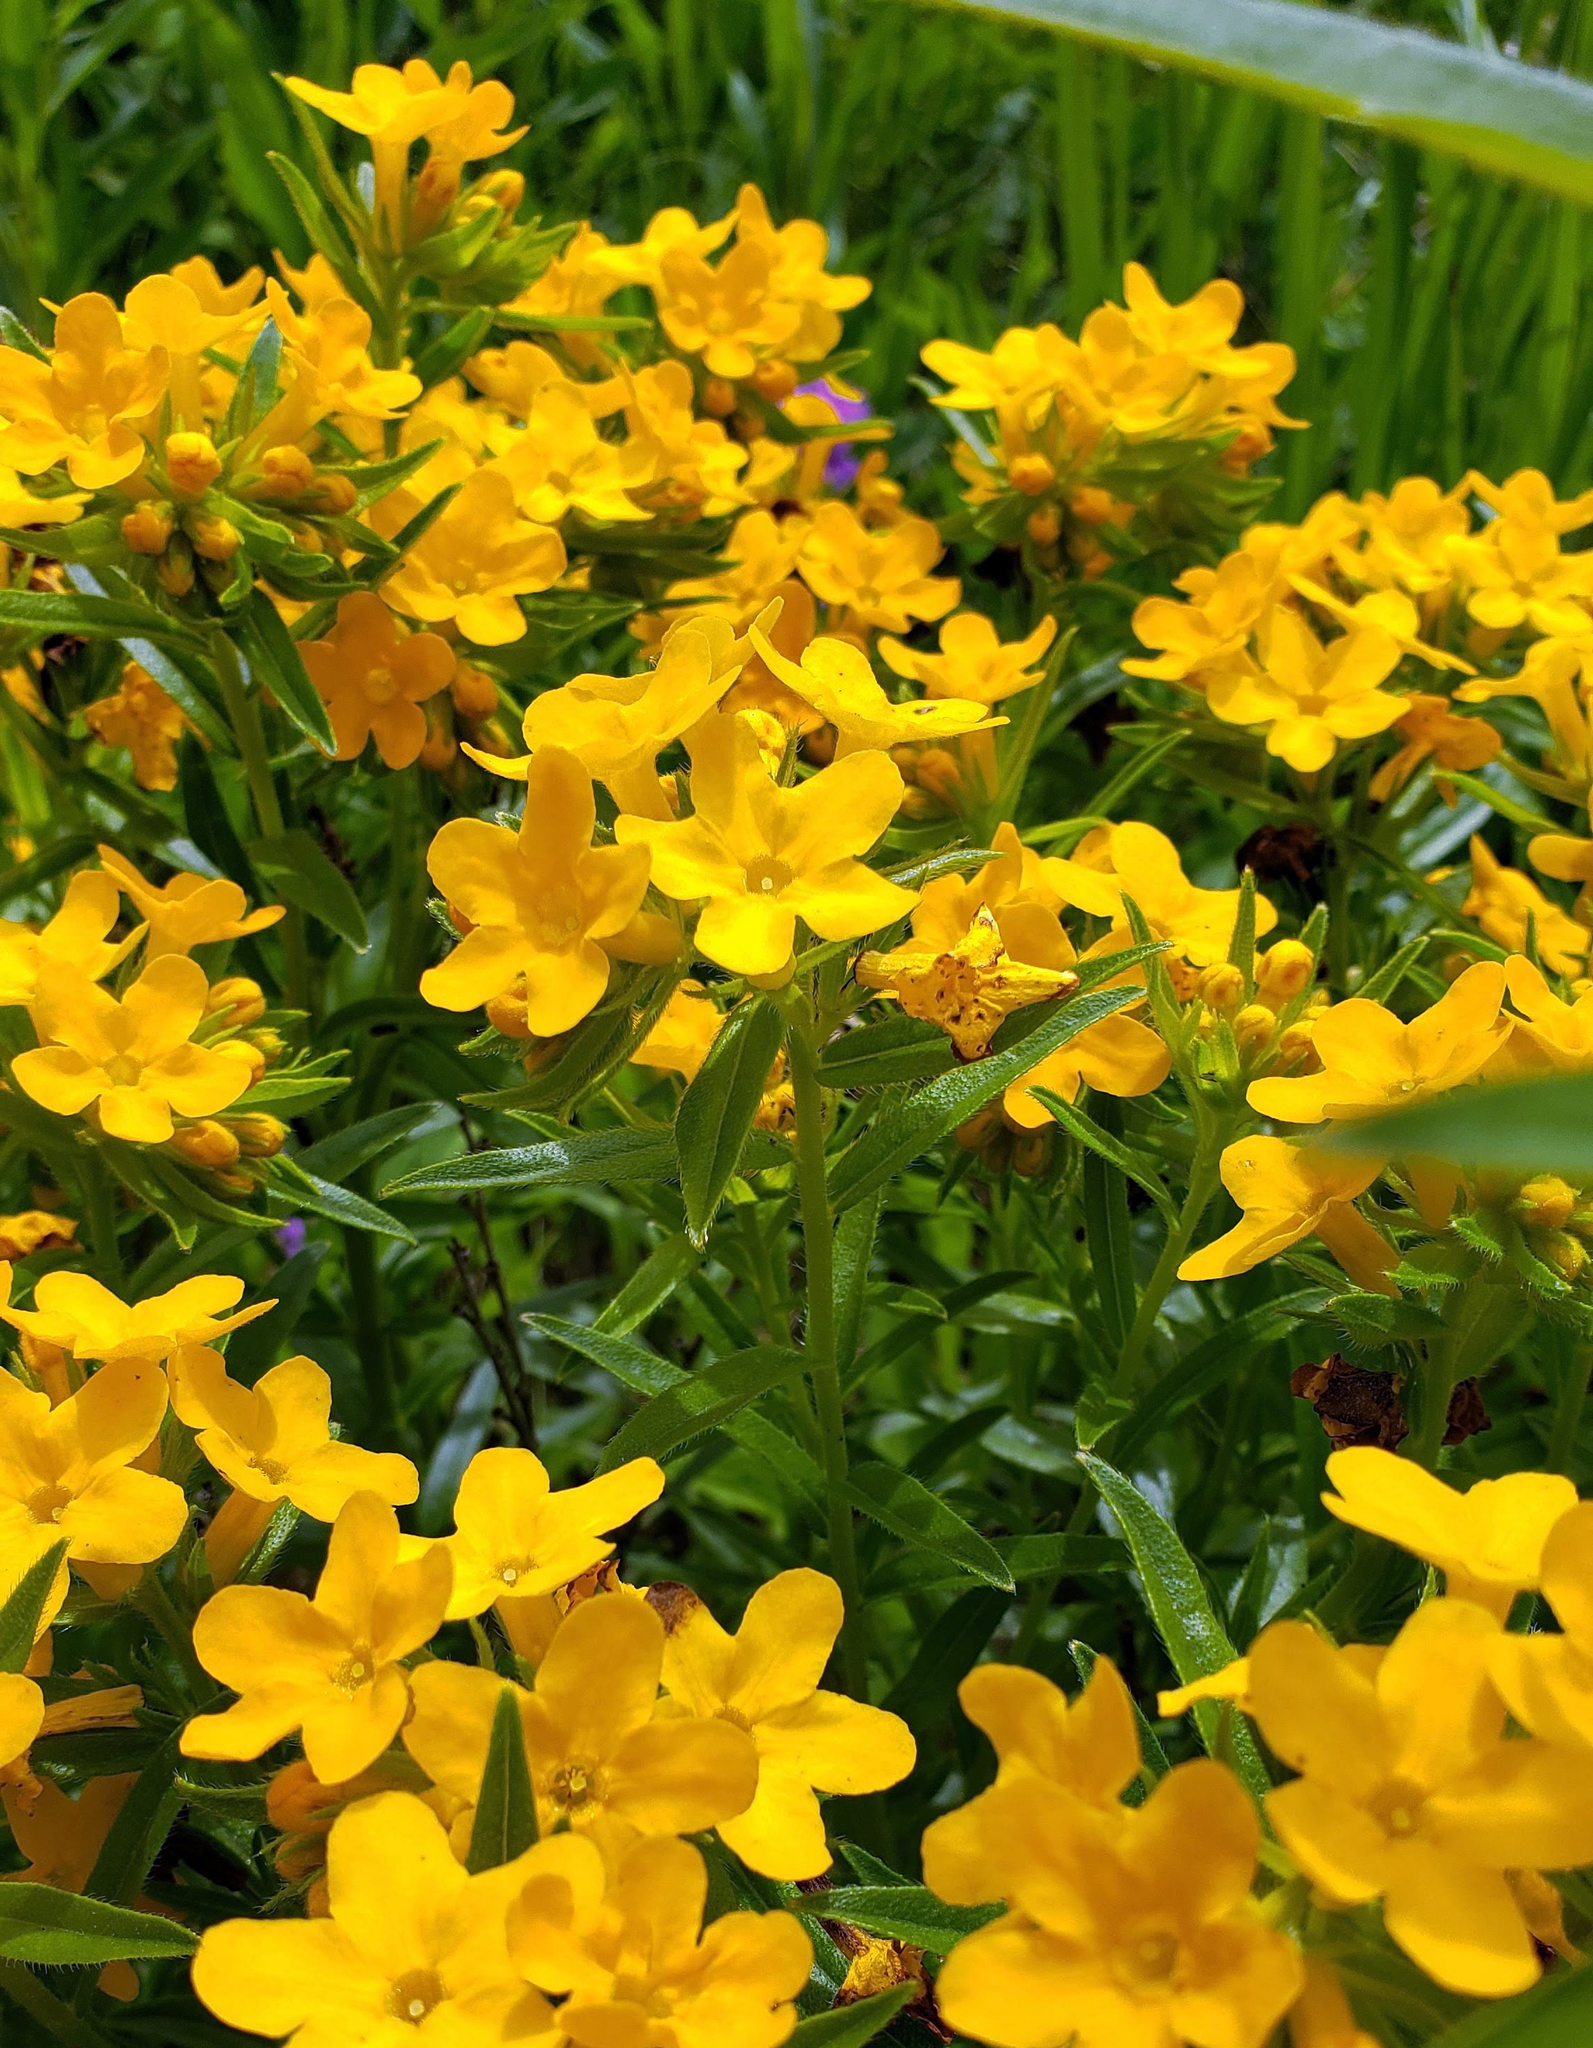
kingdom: Plantae
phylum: Tracheophyta
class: Magnoliopsida
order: Boraginales
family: Boraginaceae
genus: Lithospermum
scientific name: Lithospermum caroliniense
